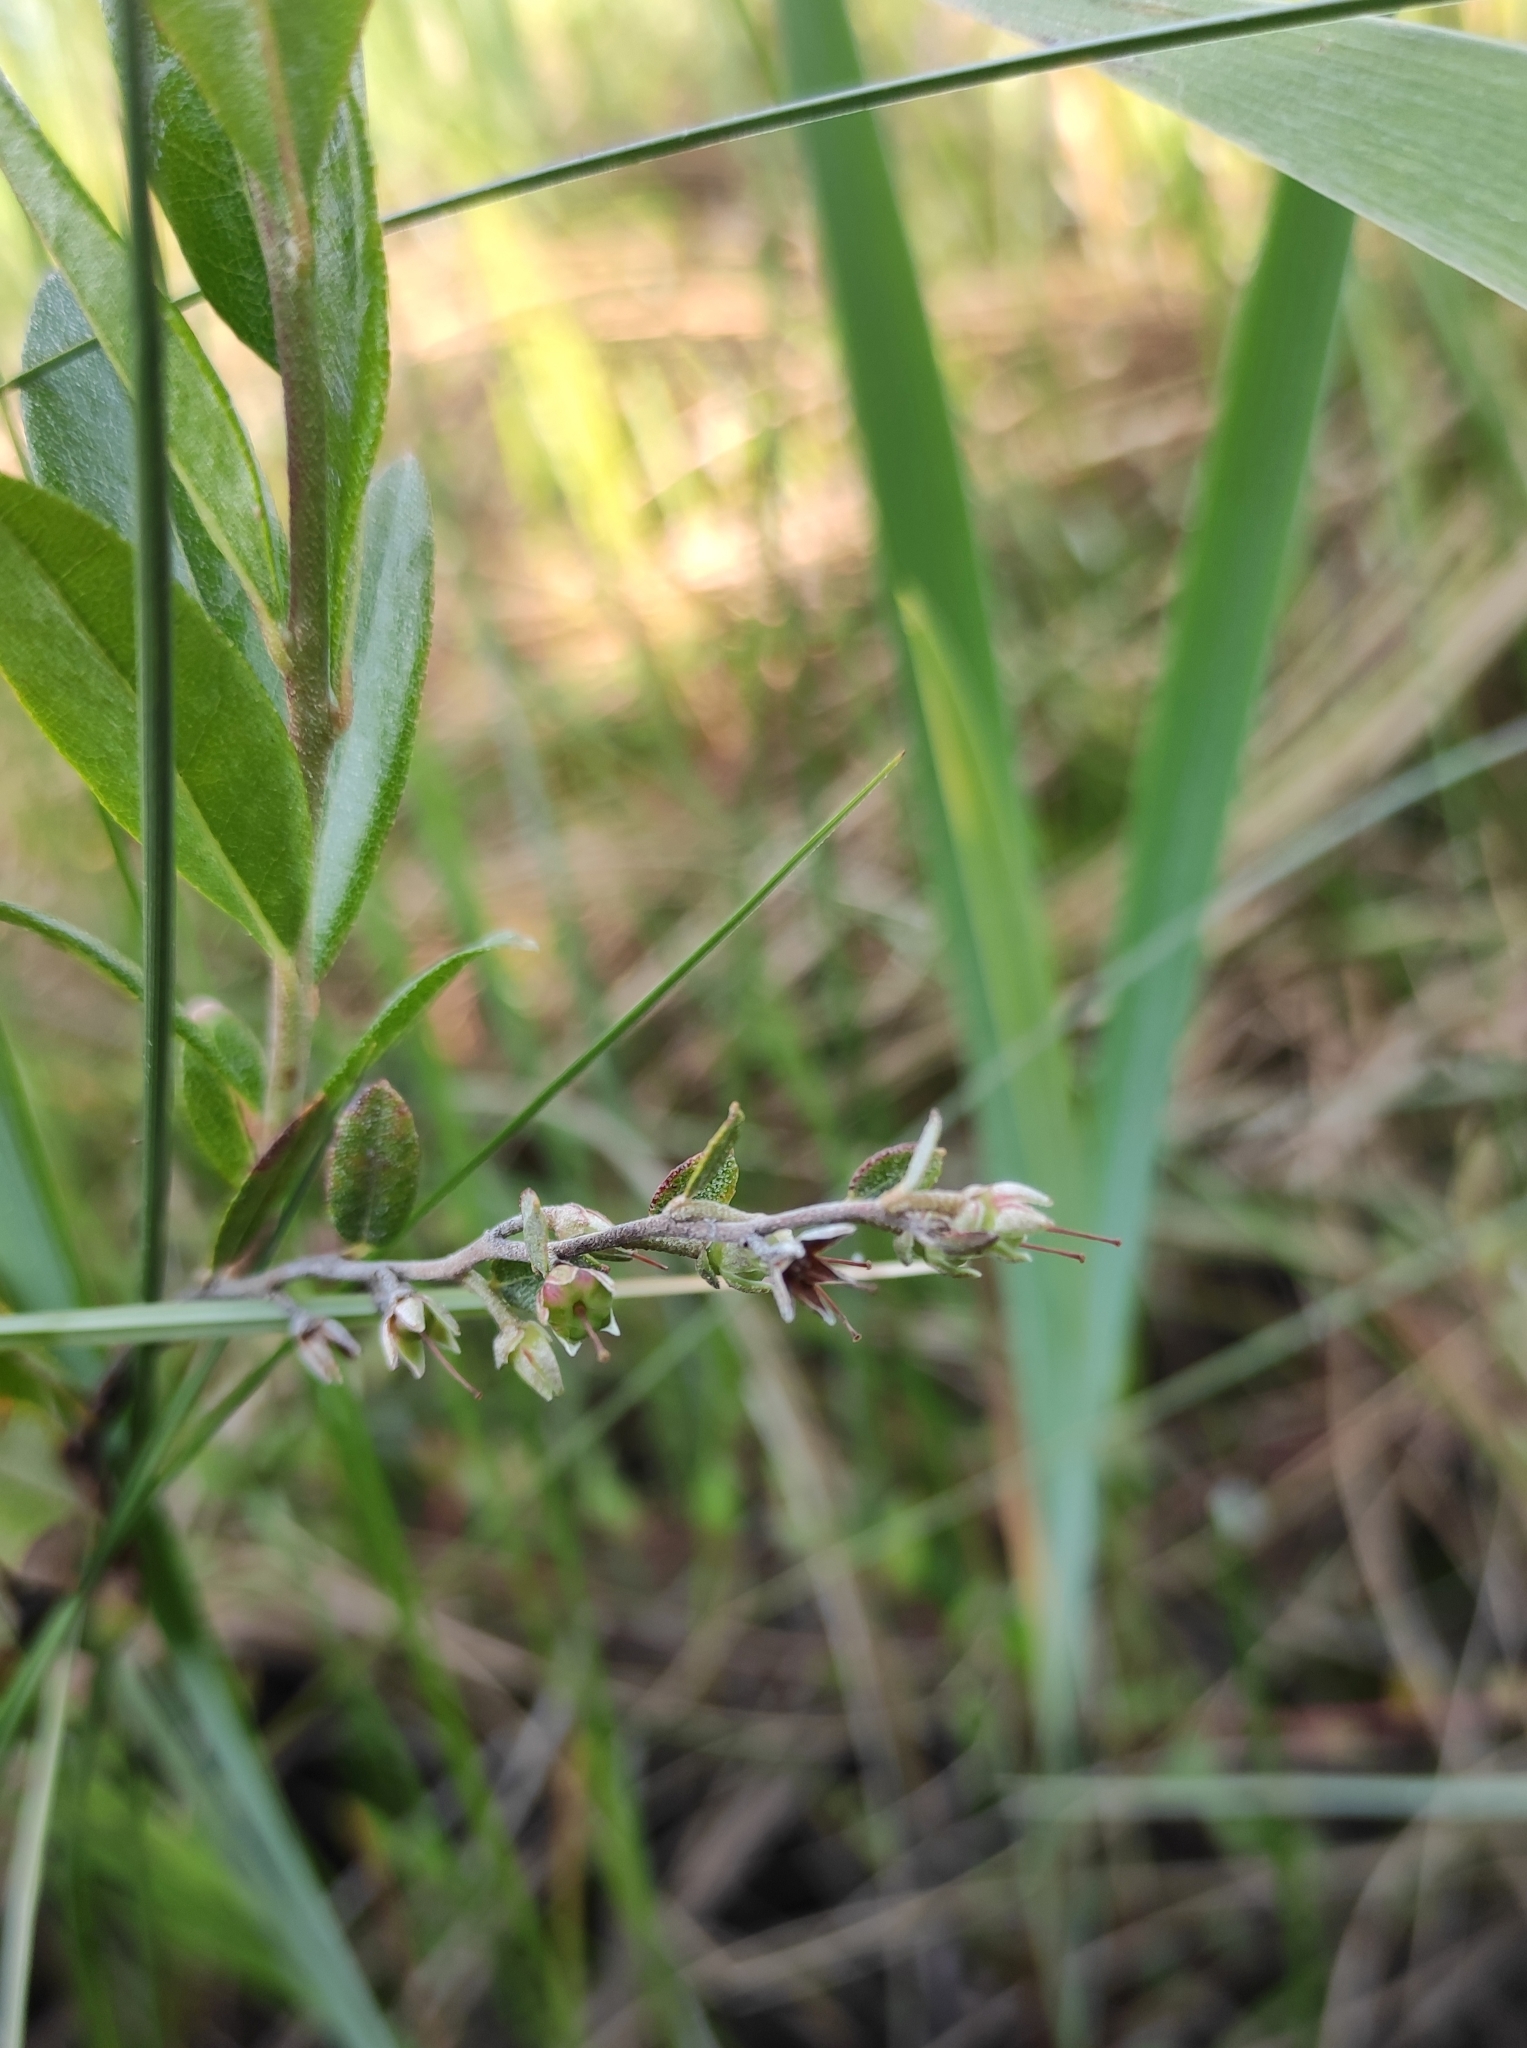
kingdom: Plantae
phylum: Tracheophyta
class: Magnoliopsida
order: Ericales
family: Ericaceae
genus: Chamaedaphne
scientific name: Chamaedaphne calyculata
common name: Leatherleaf
